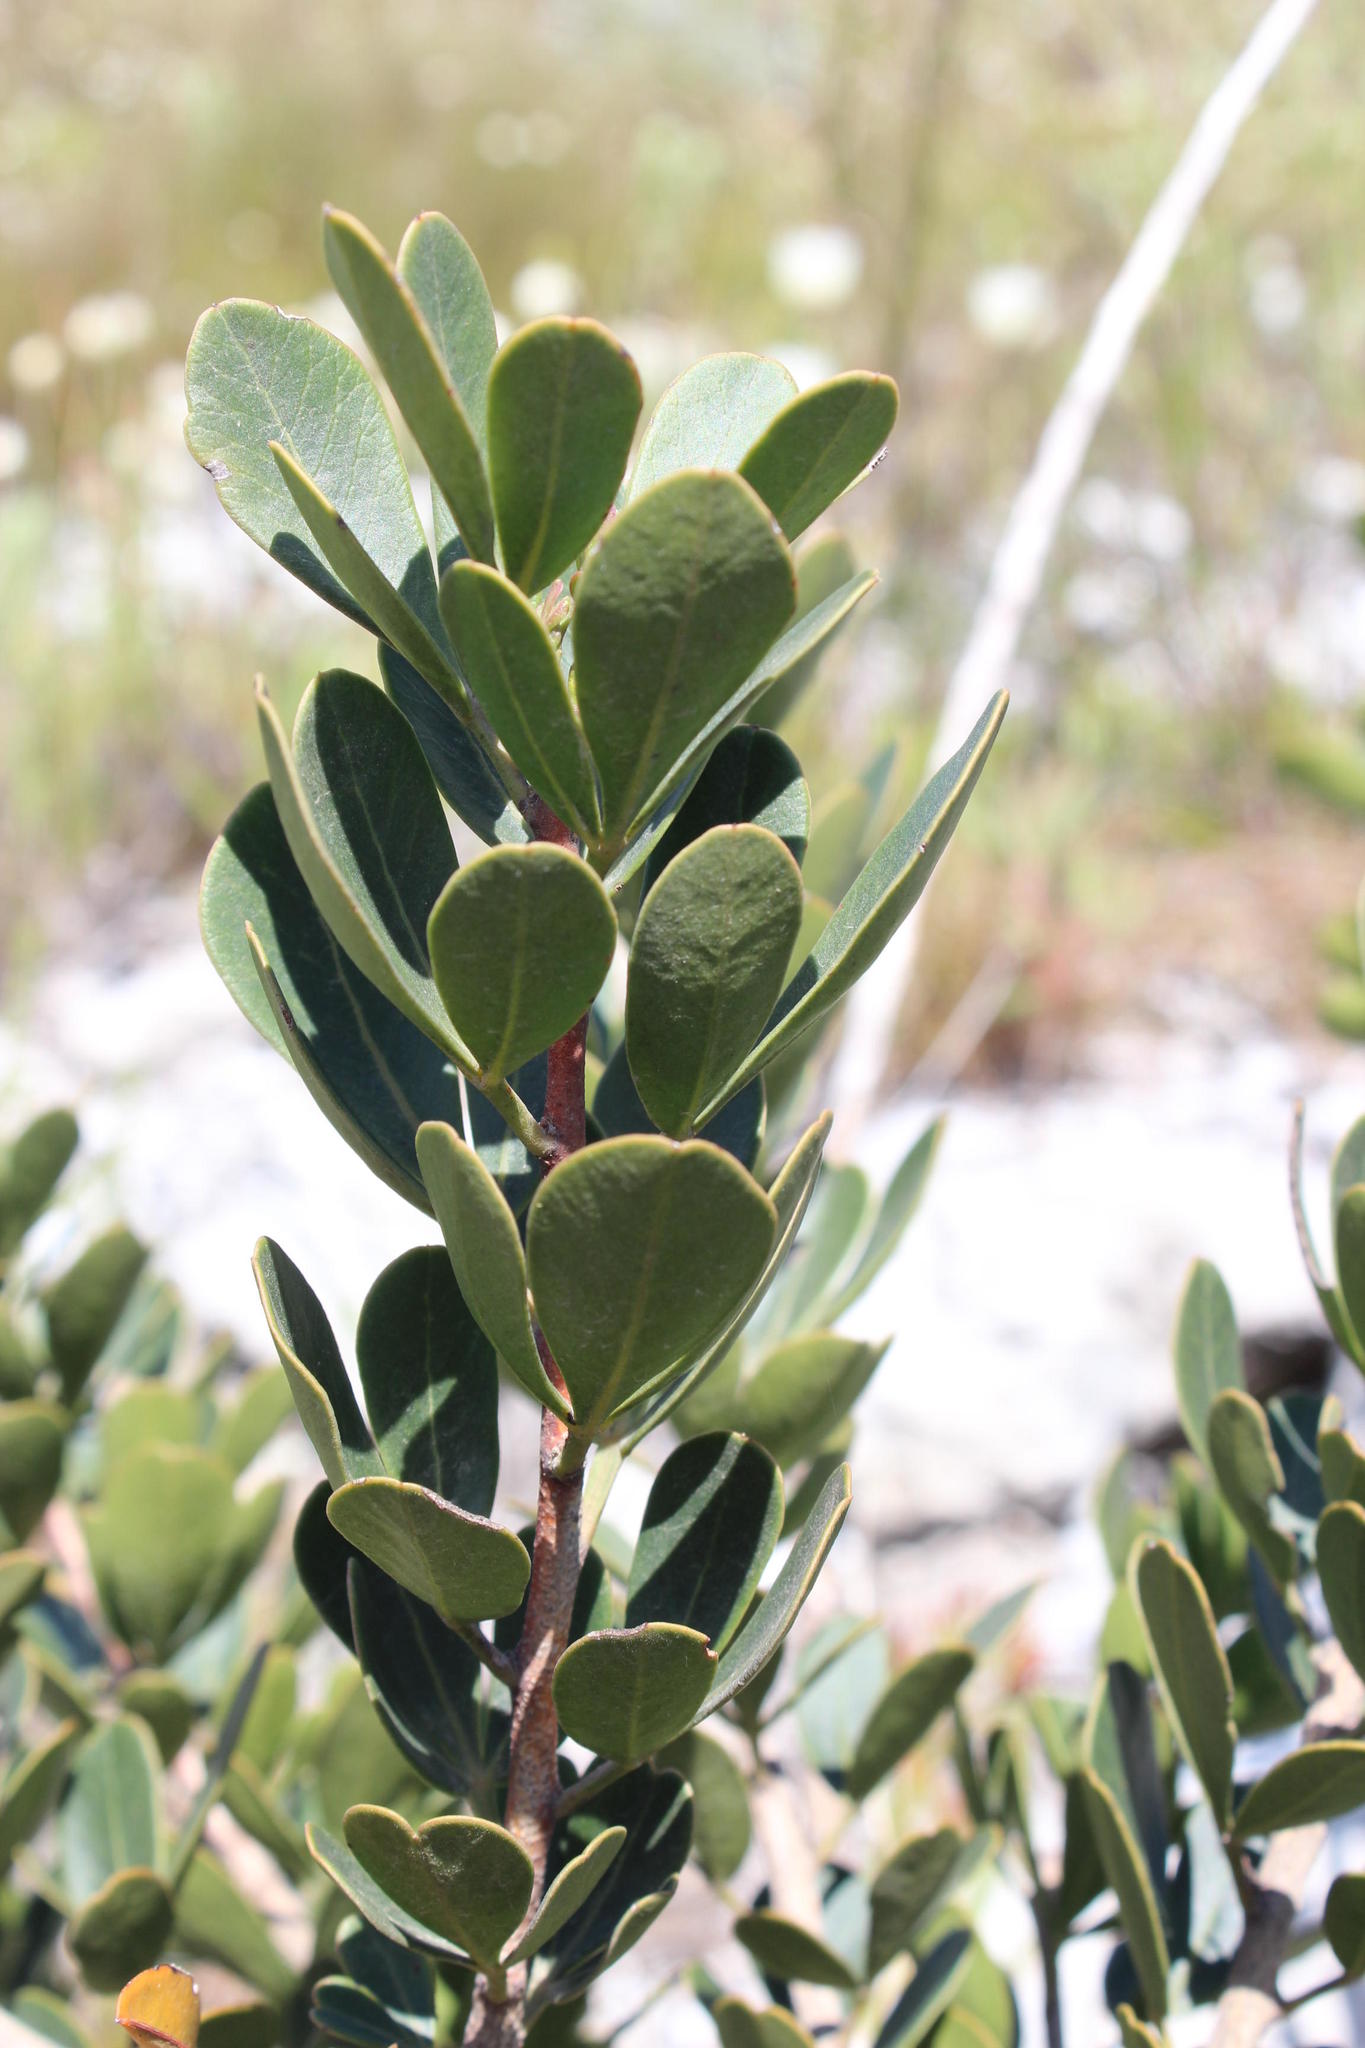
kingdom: Plantae
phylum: Tracheophyta
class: Magnoliopsida
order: Sapindales
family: Anacardiaceae
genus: Searsia
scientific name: Searsia scytophylla
